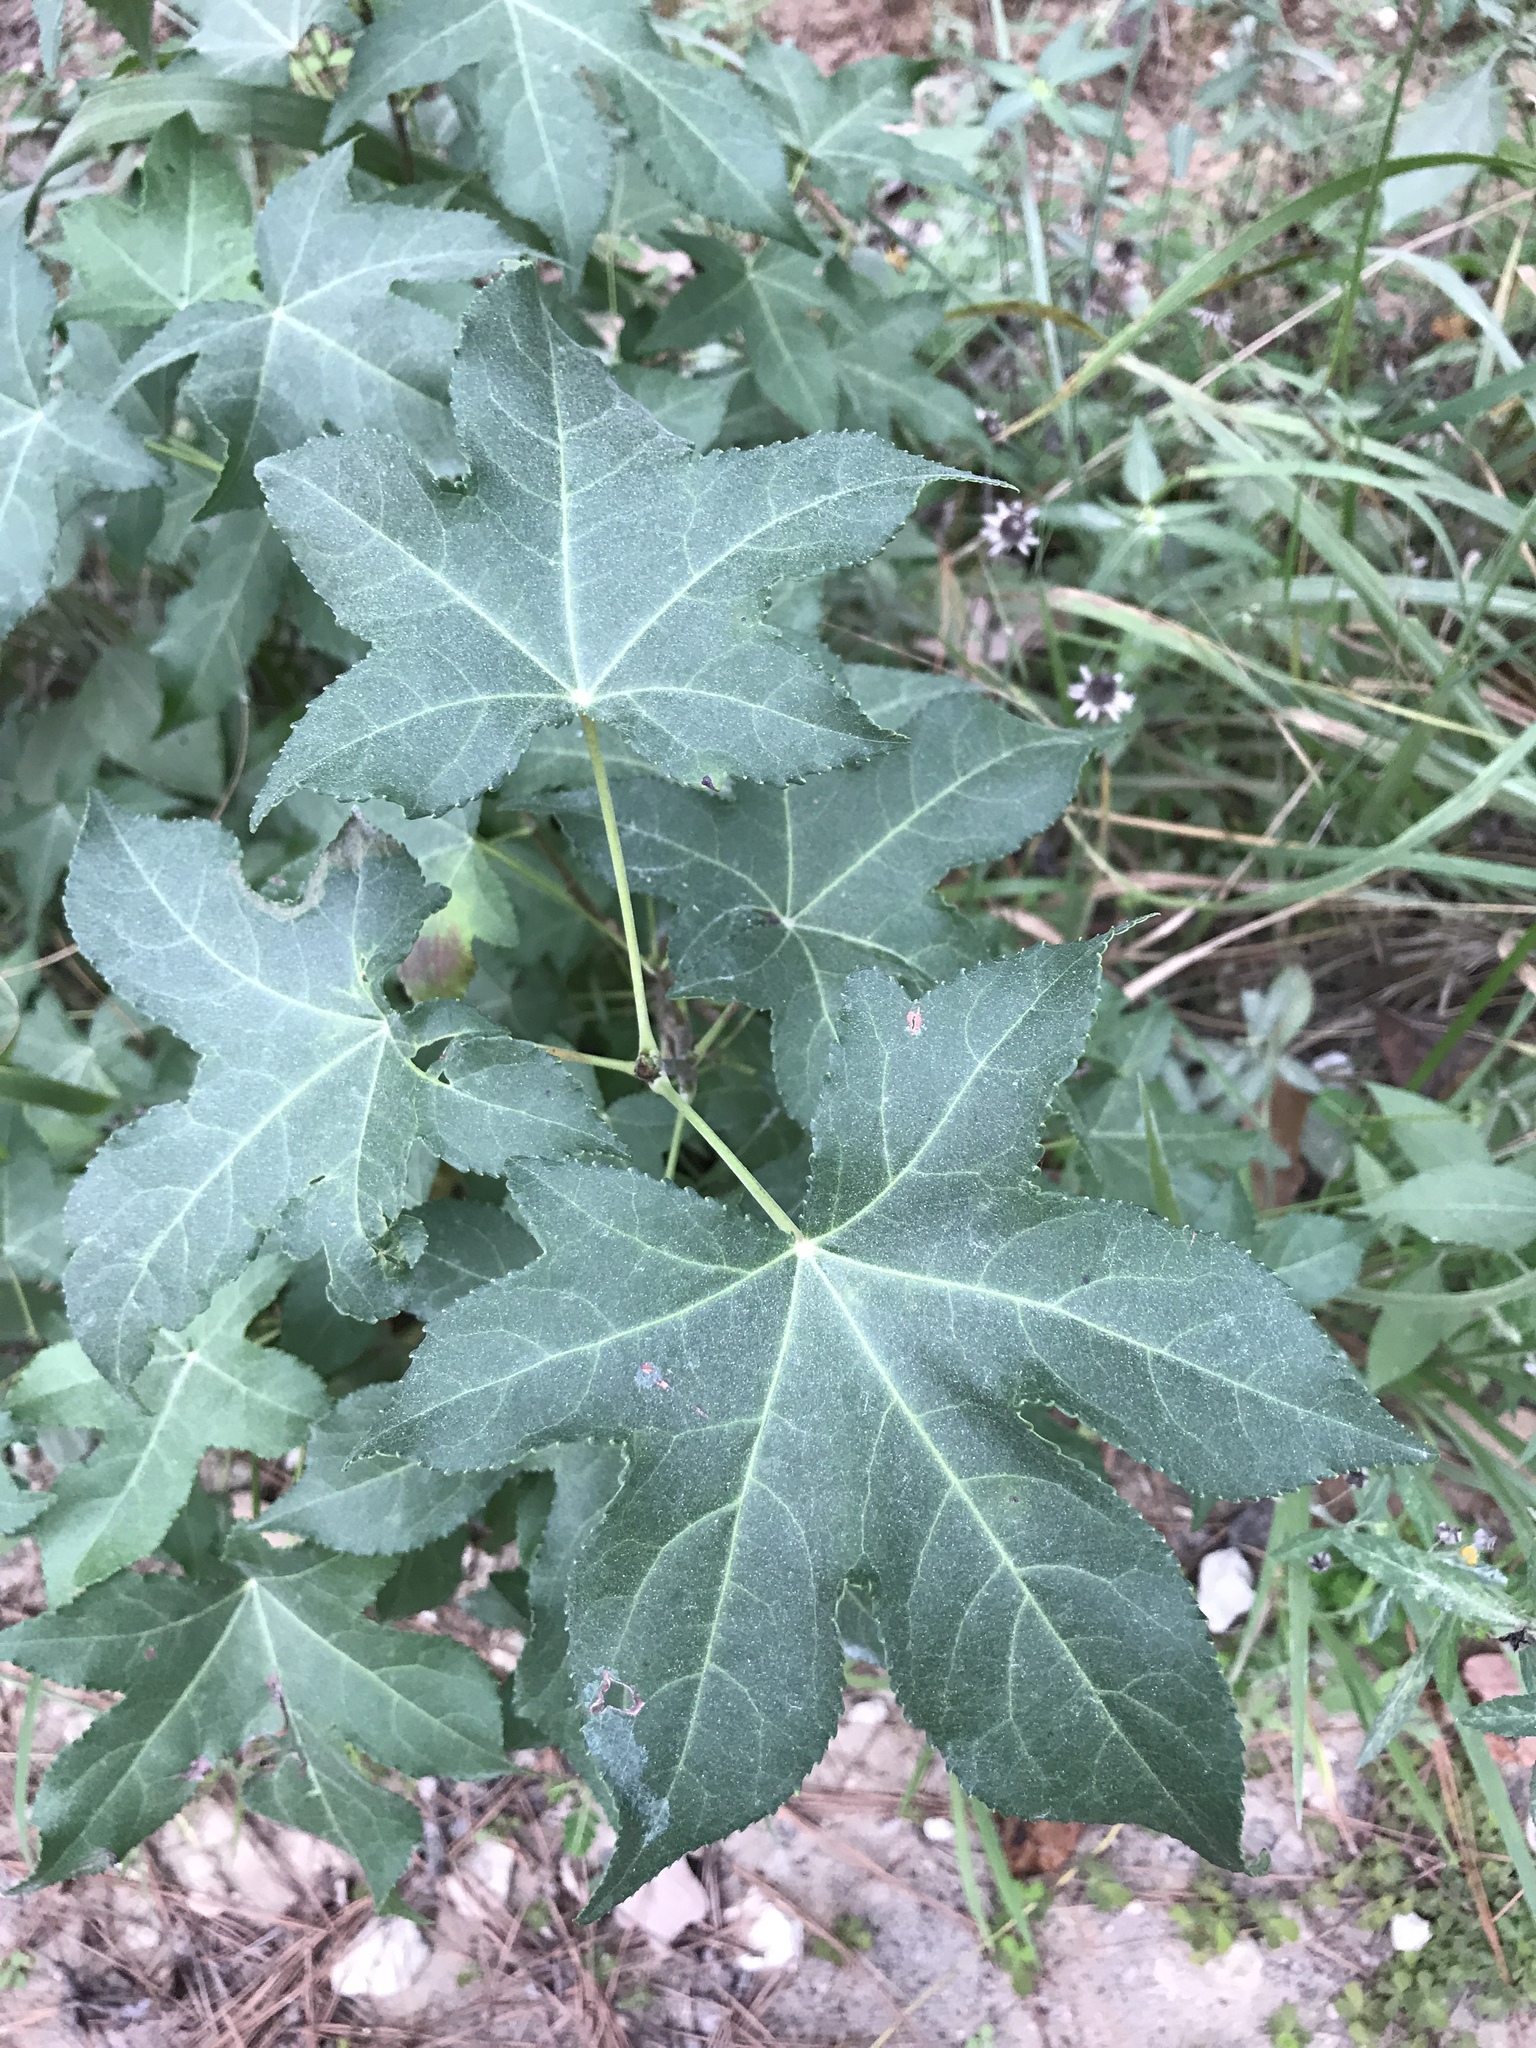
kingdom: Plantae
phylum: Tracheophyta
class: Magnoliopsida
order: Saxifragales
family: Altingiaceae
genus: Liquidambar
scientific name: Liquidambar styraciflua
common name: Sweet gum
